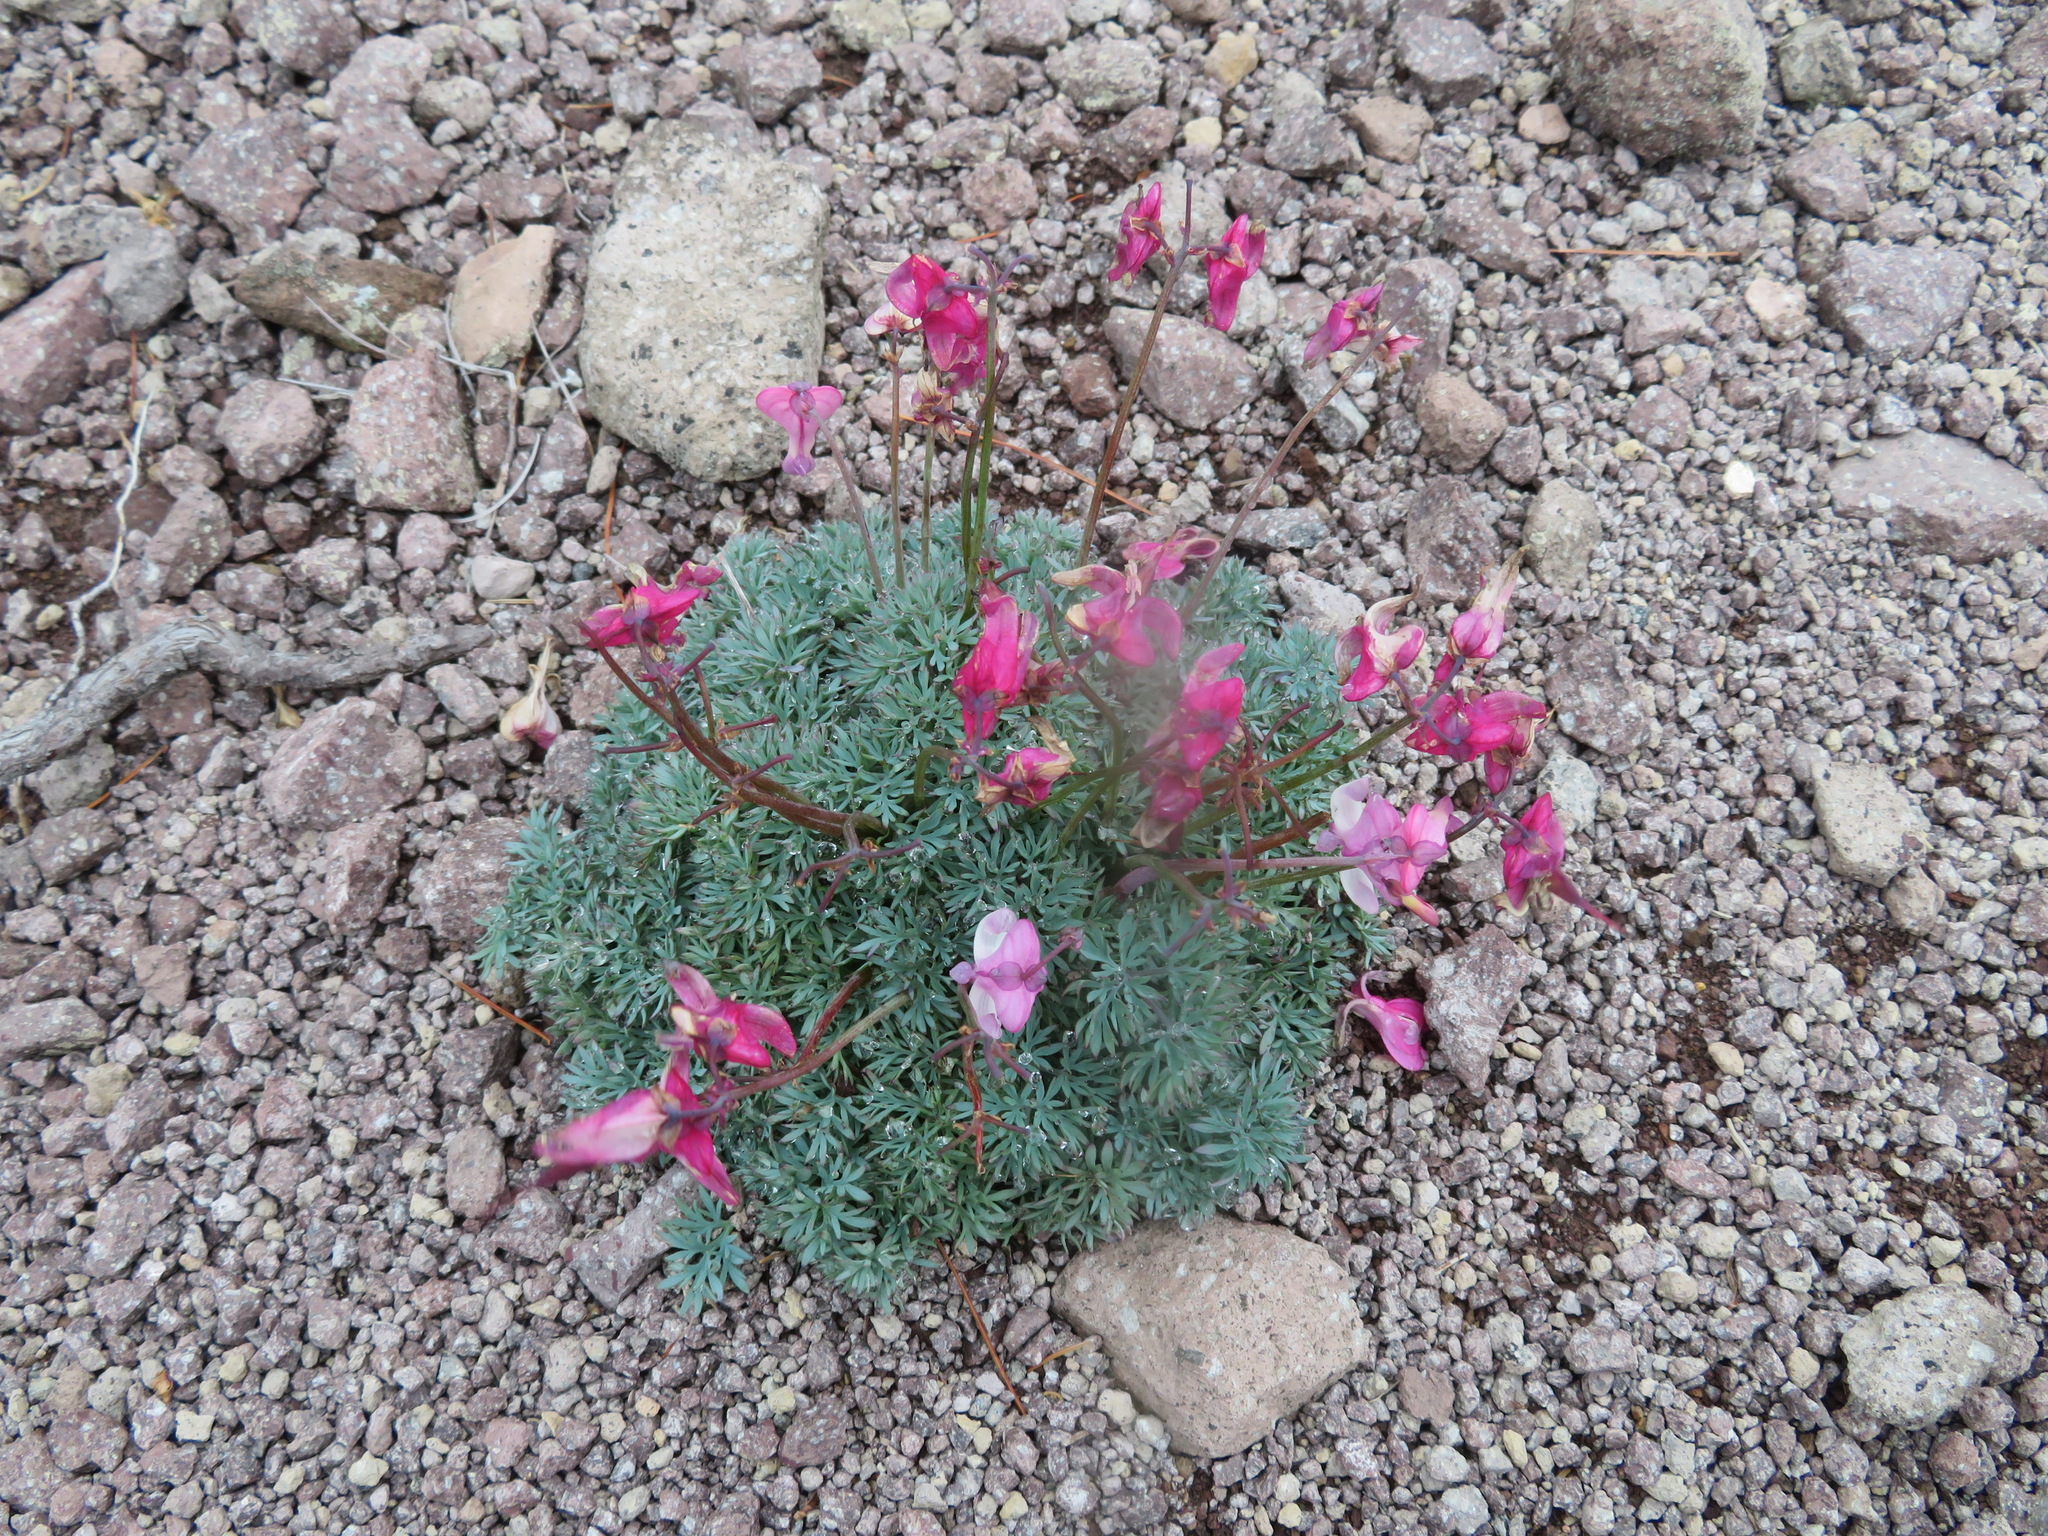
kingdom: Plantae
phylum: Tracheophyta
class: Magnoliopsida
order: Ranunculales
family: Papaveraceae
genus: Dicentra
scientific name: Dicentra peregrina
